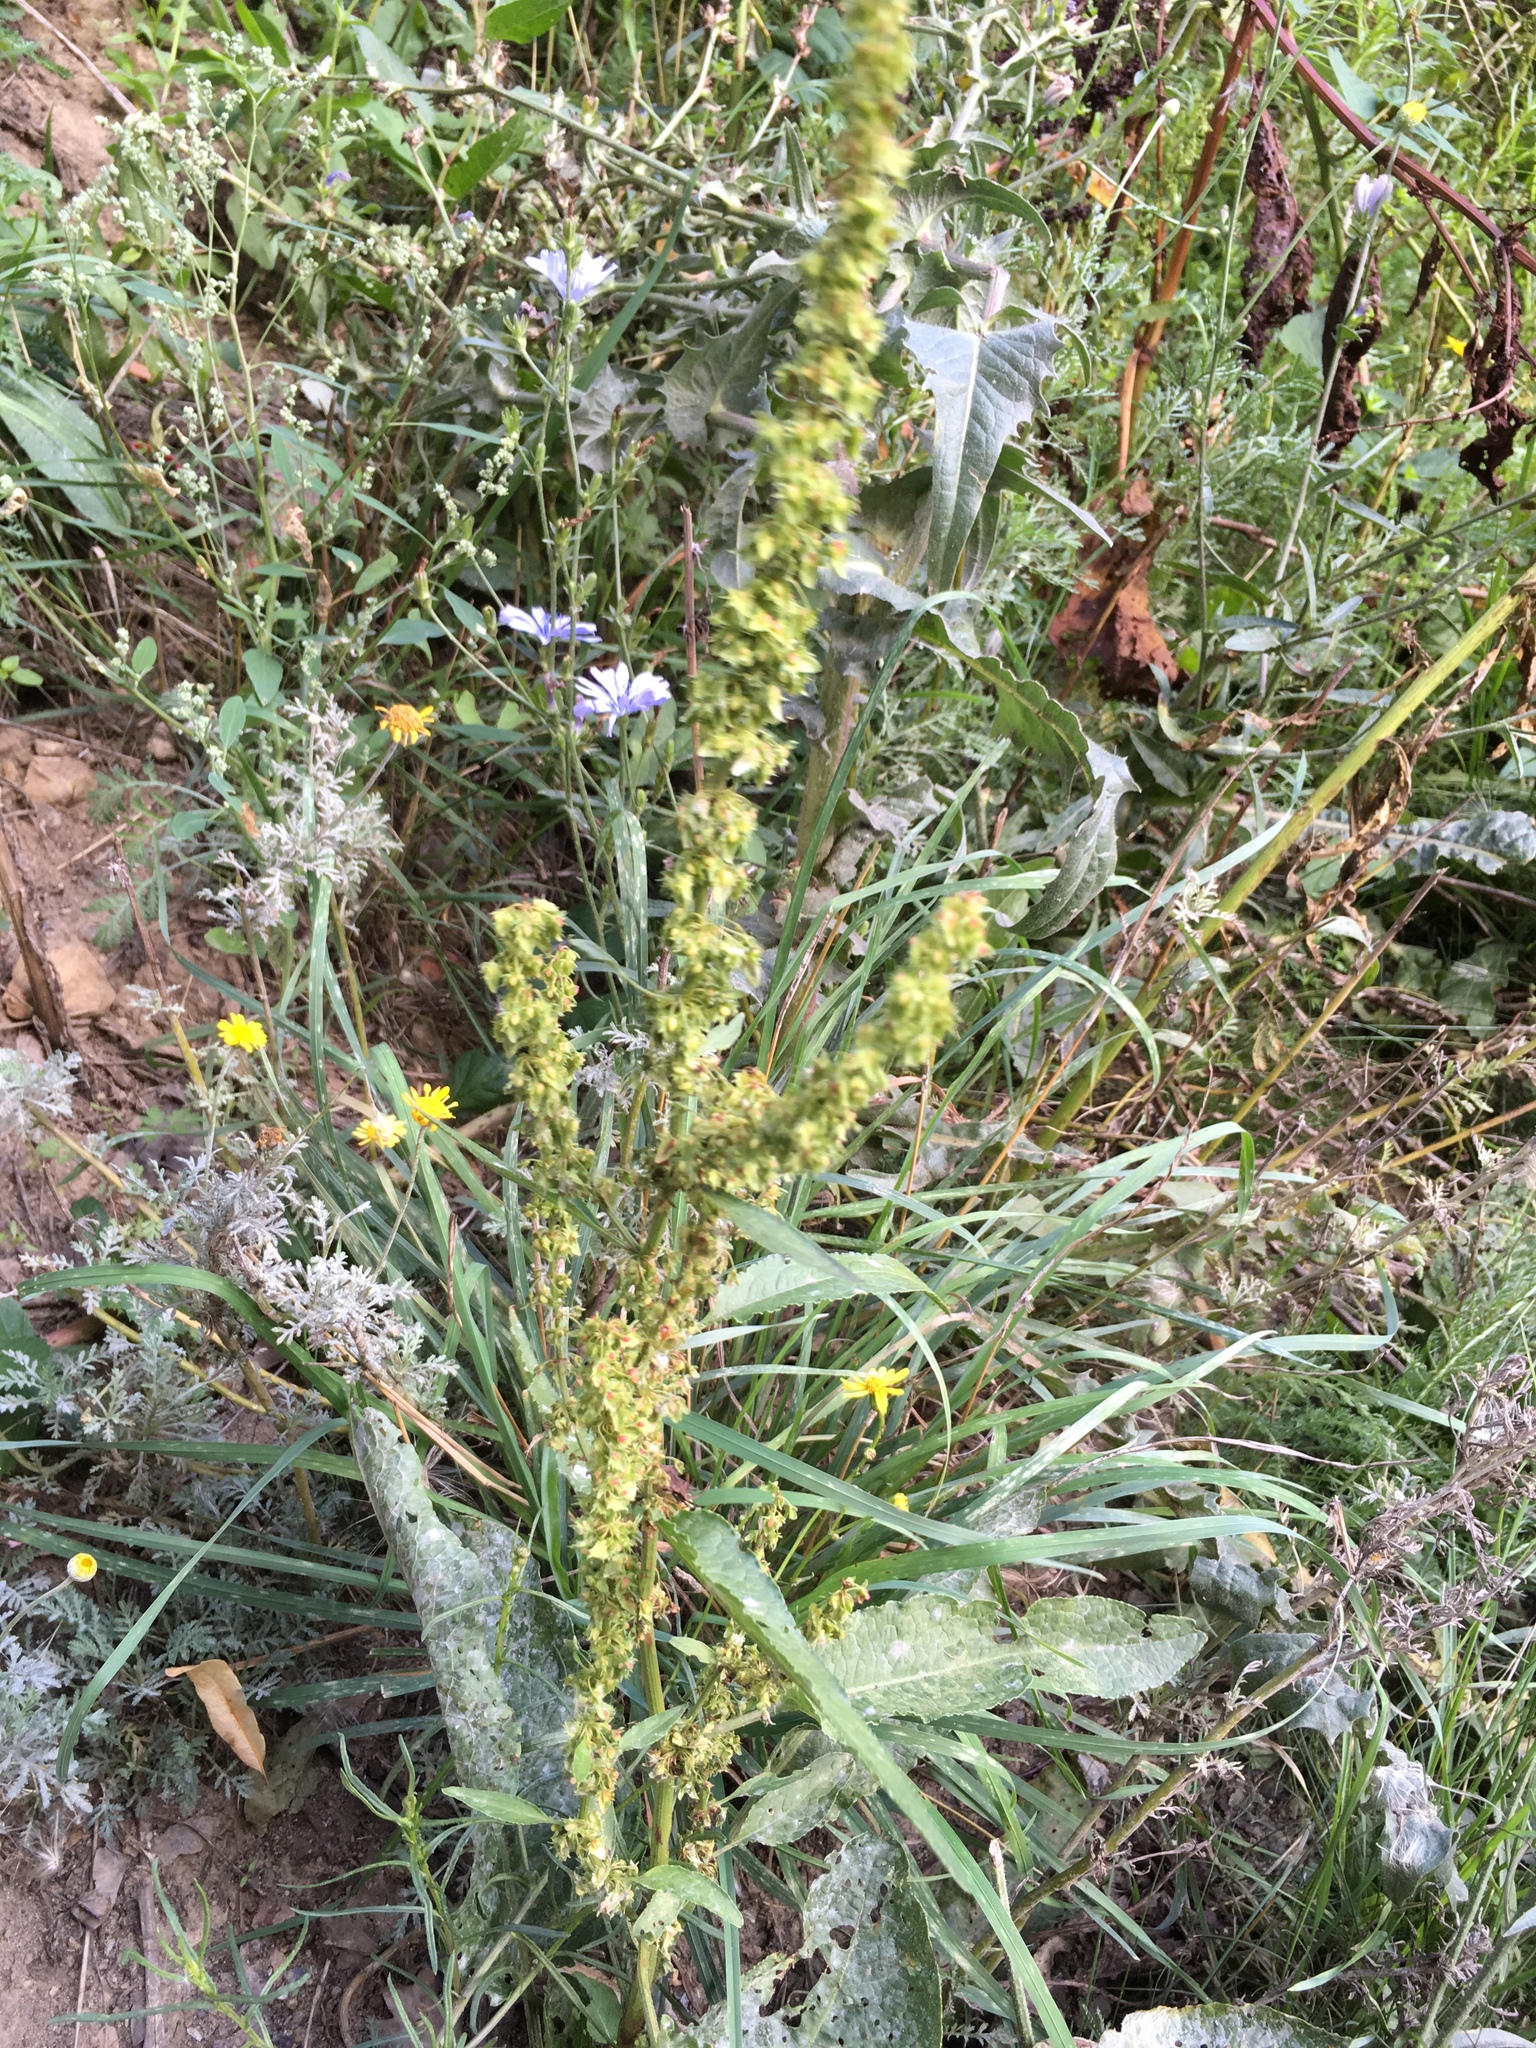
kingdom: Plantae
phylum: Tracheophyta
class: Magnoliopsida
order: Caryophyllales
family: Polygonaceae
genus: Rumex
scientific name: Rumex obtusifolius
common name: Bitter dock
